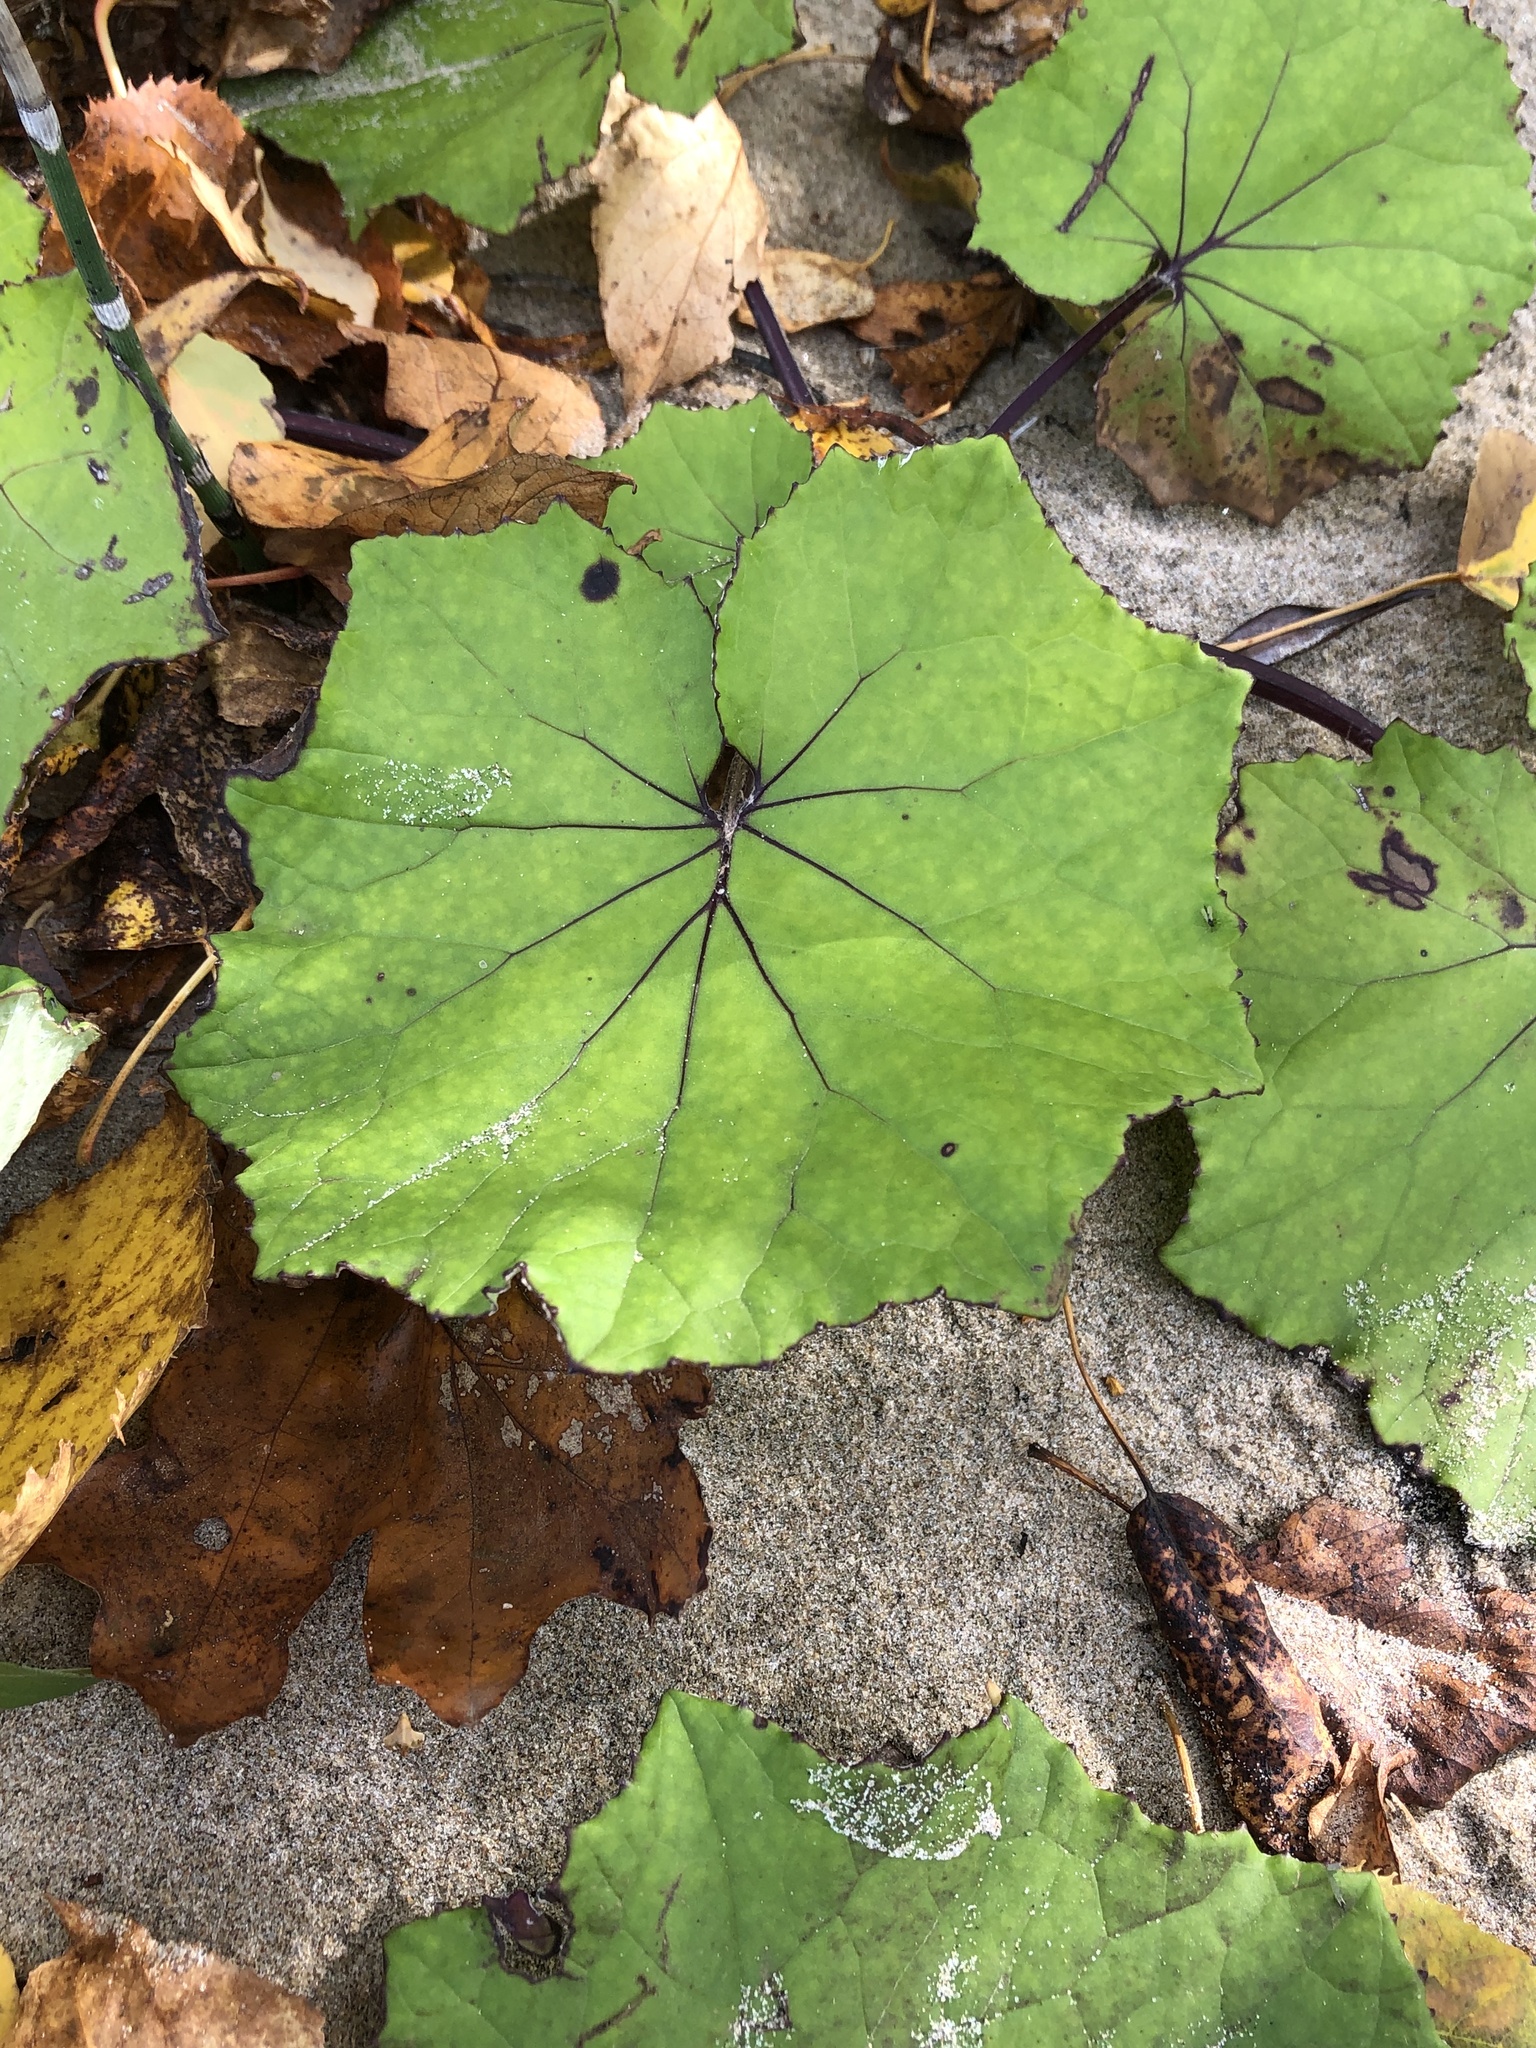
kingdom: Plantae
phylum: Tracheophyta
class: Magnoliopsida
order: Asterales
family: Asteraceae
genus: Tussilago
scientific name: Tussilago farfara
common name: Coltsfoot
